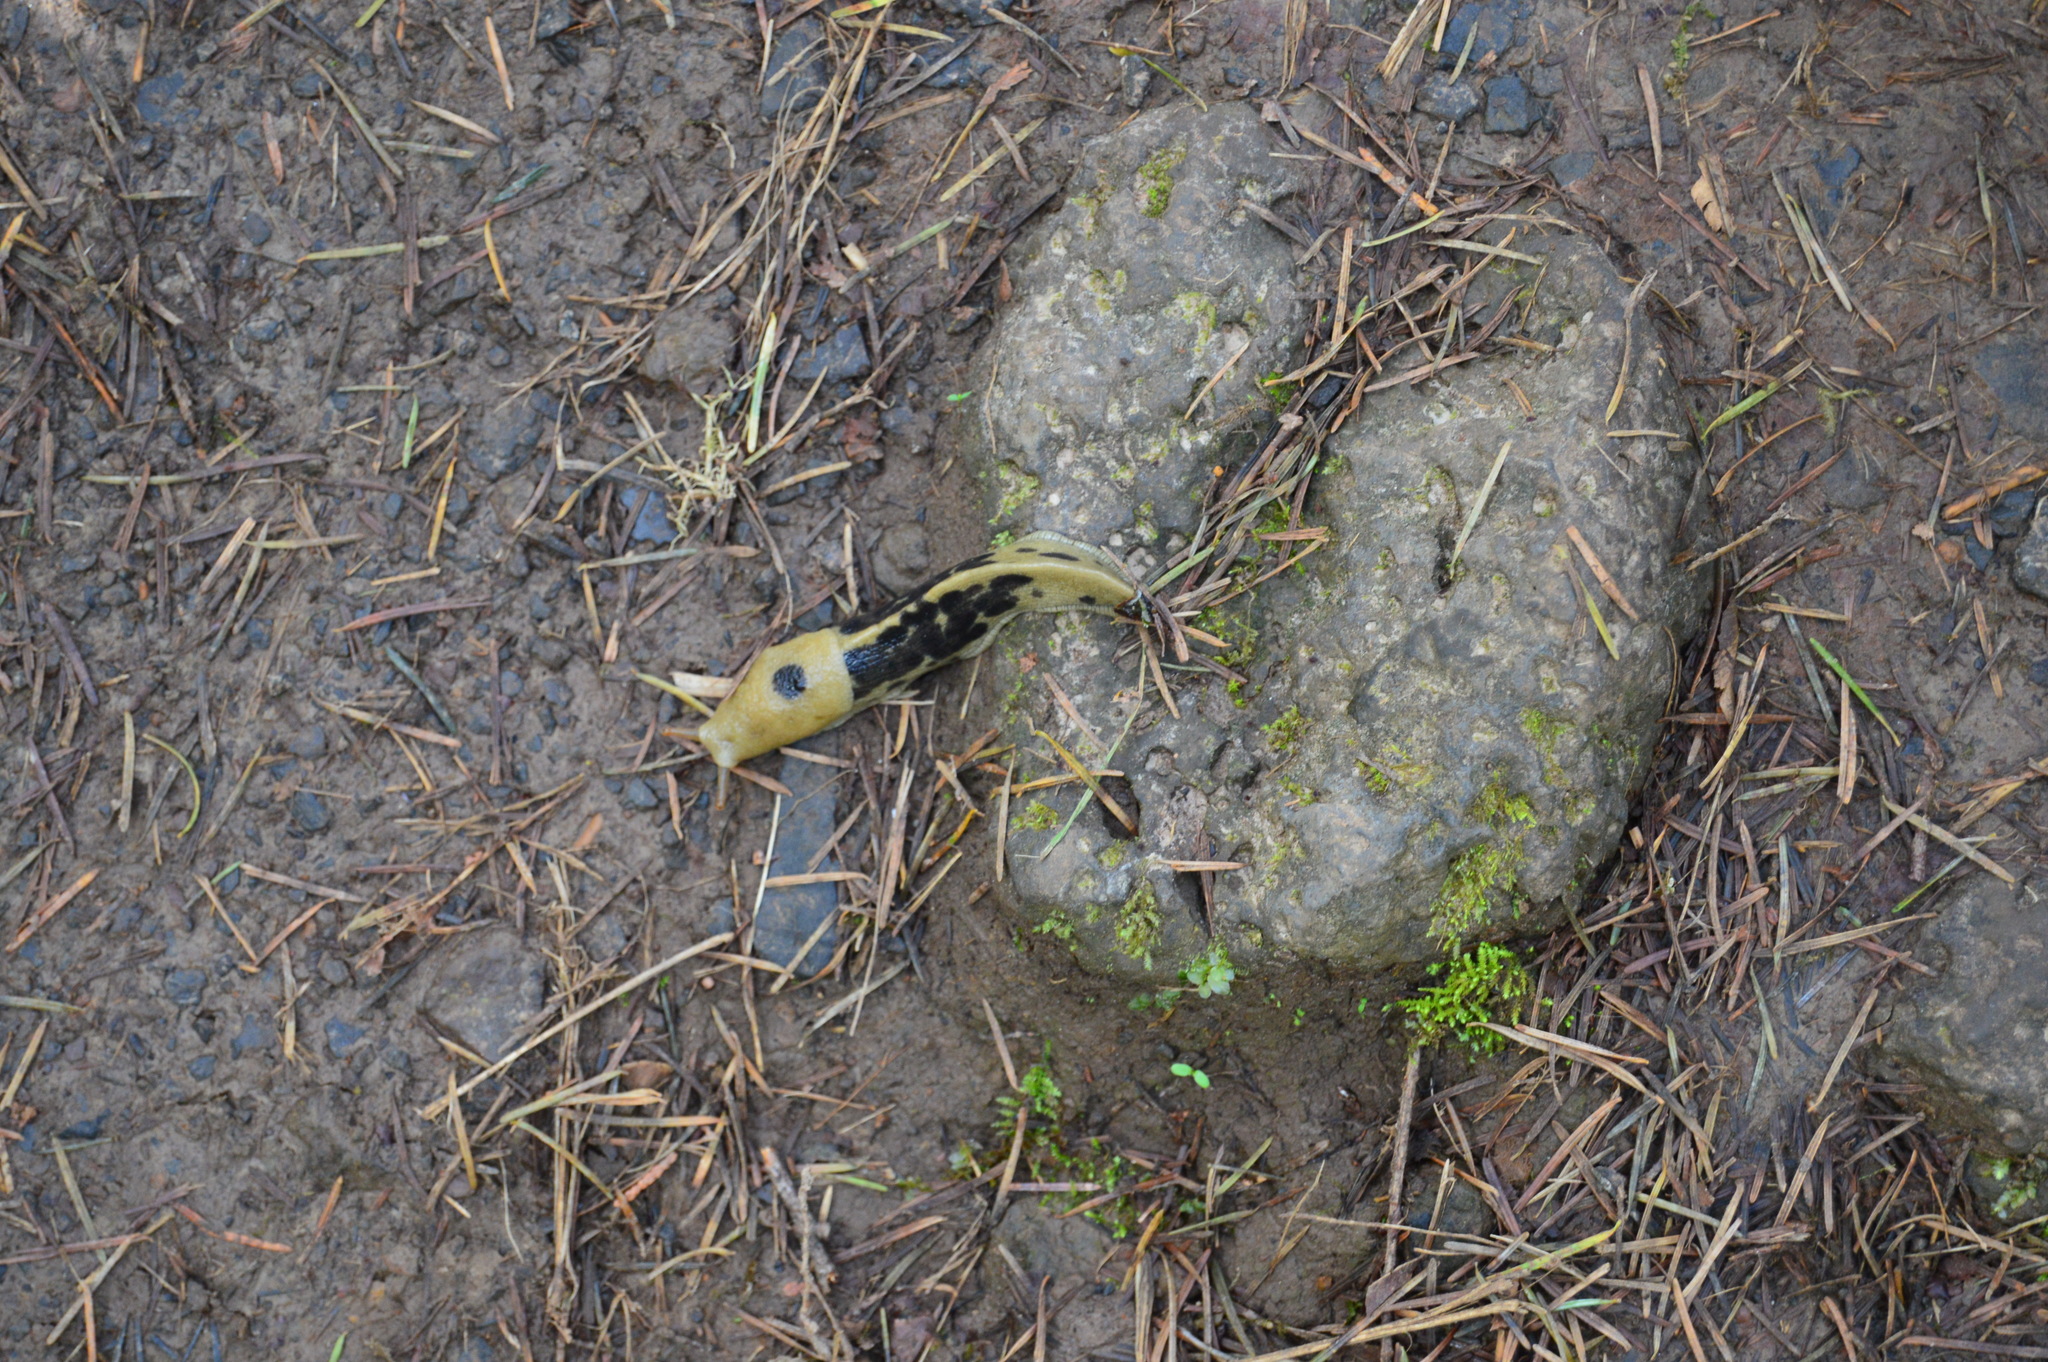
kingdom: Animalia
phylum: Mollusca
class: Gastropoda
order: Stylommatophora
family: Ariolimacidae
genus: Ariolimax
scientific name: Ariolimax columbianus
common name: Pacific banana slug
